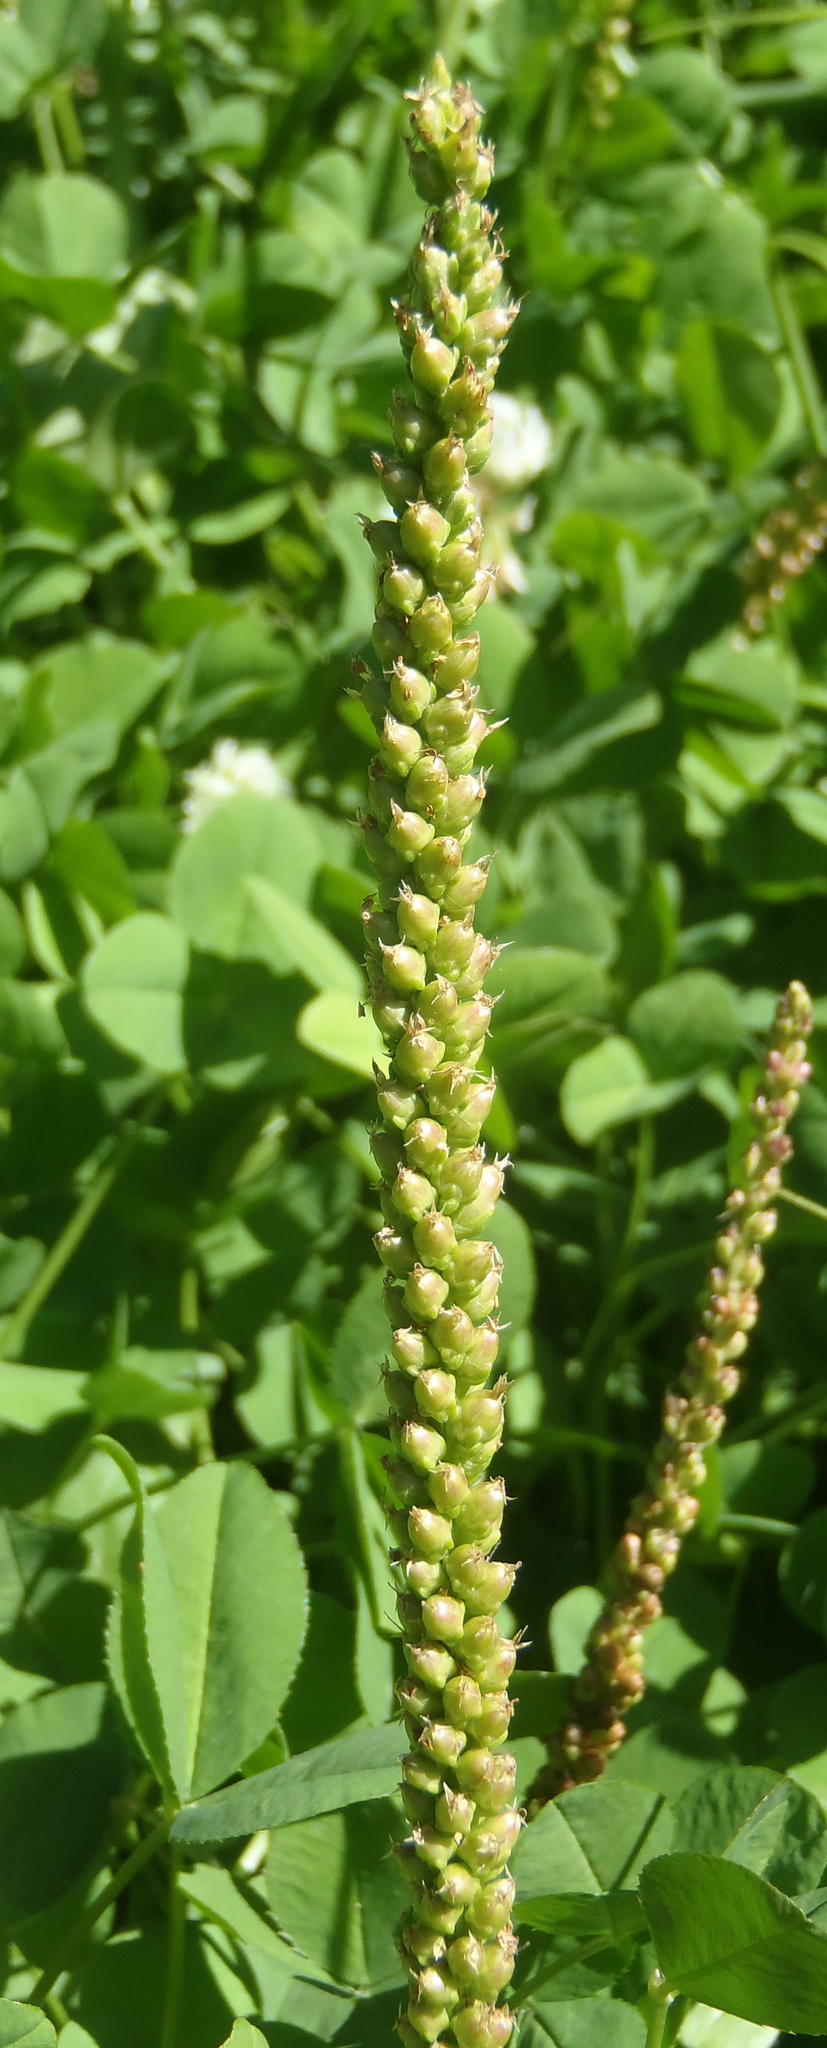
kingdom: Plantae
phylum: Tracheophyta
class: Magnoliopsida
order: Lamiales
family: Plantaginaceae
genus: Plantago
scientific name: Plantago major
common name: Common plantain
